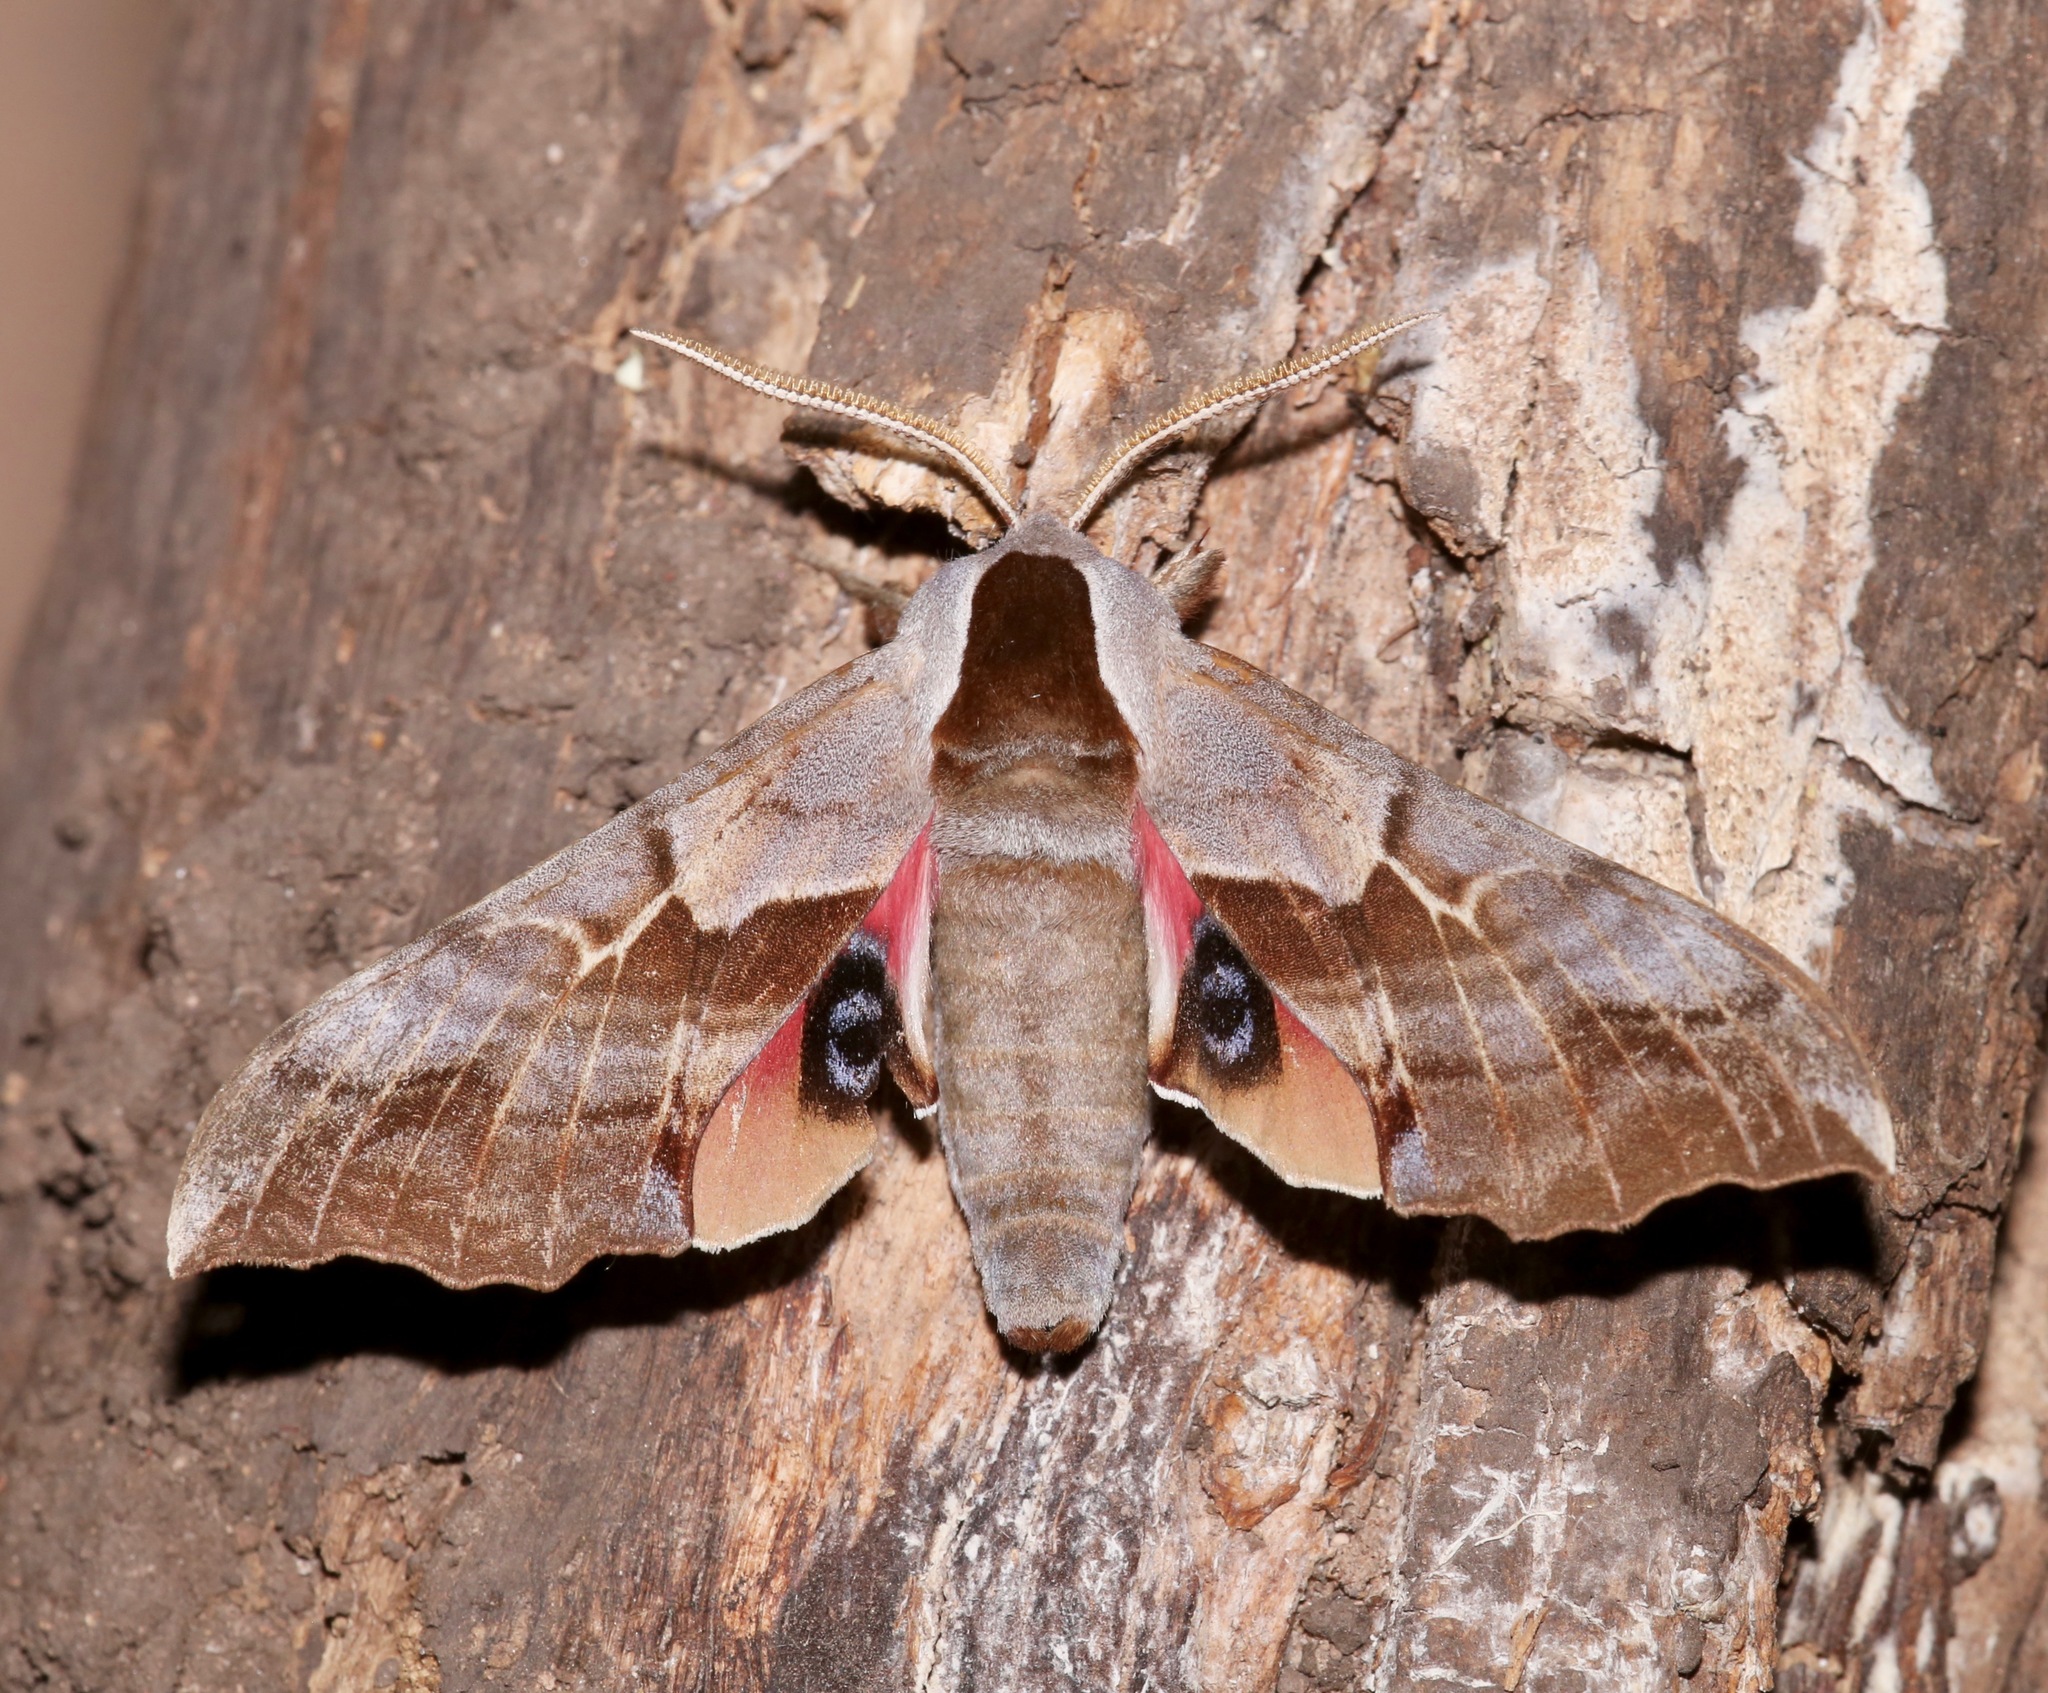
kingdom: Animalia
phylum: Arthropoda
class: Insecta
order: Lepidoptera
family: Sphingidae
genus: Smerinthus
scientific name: Smerinthus cerisyi
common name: Cerisy's sphinx moth
